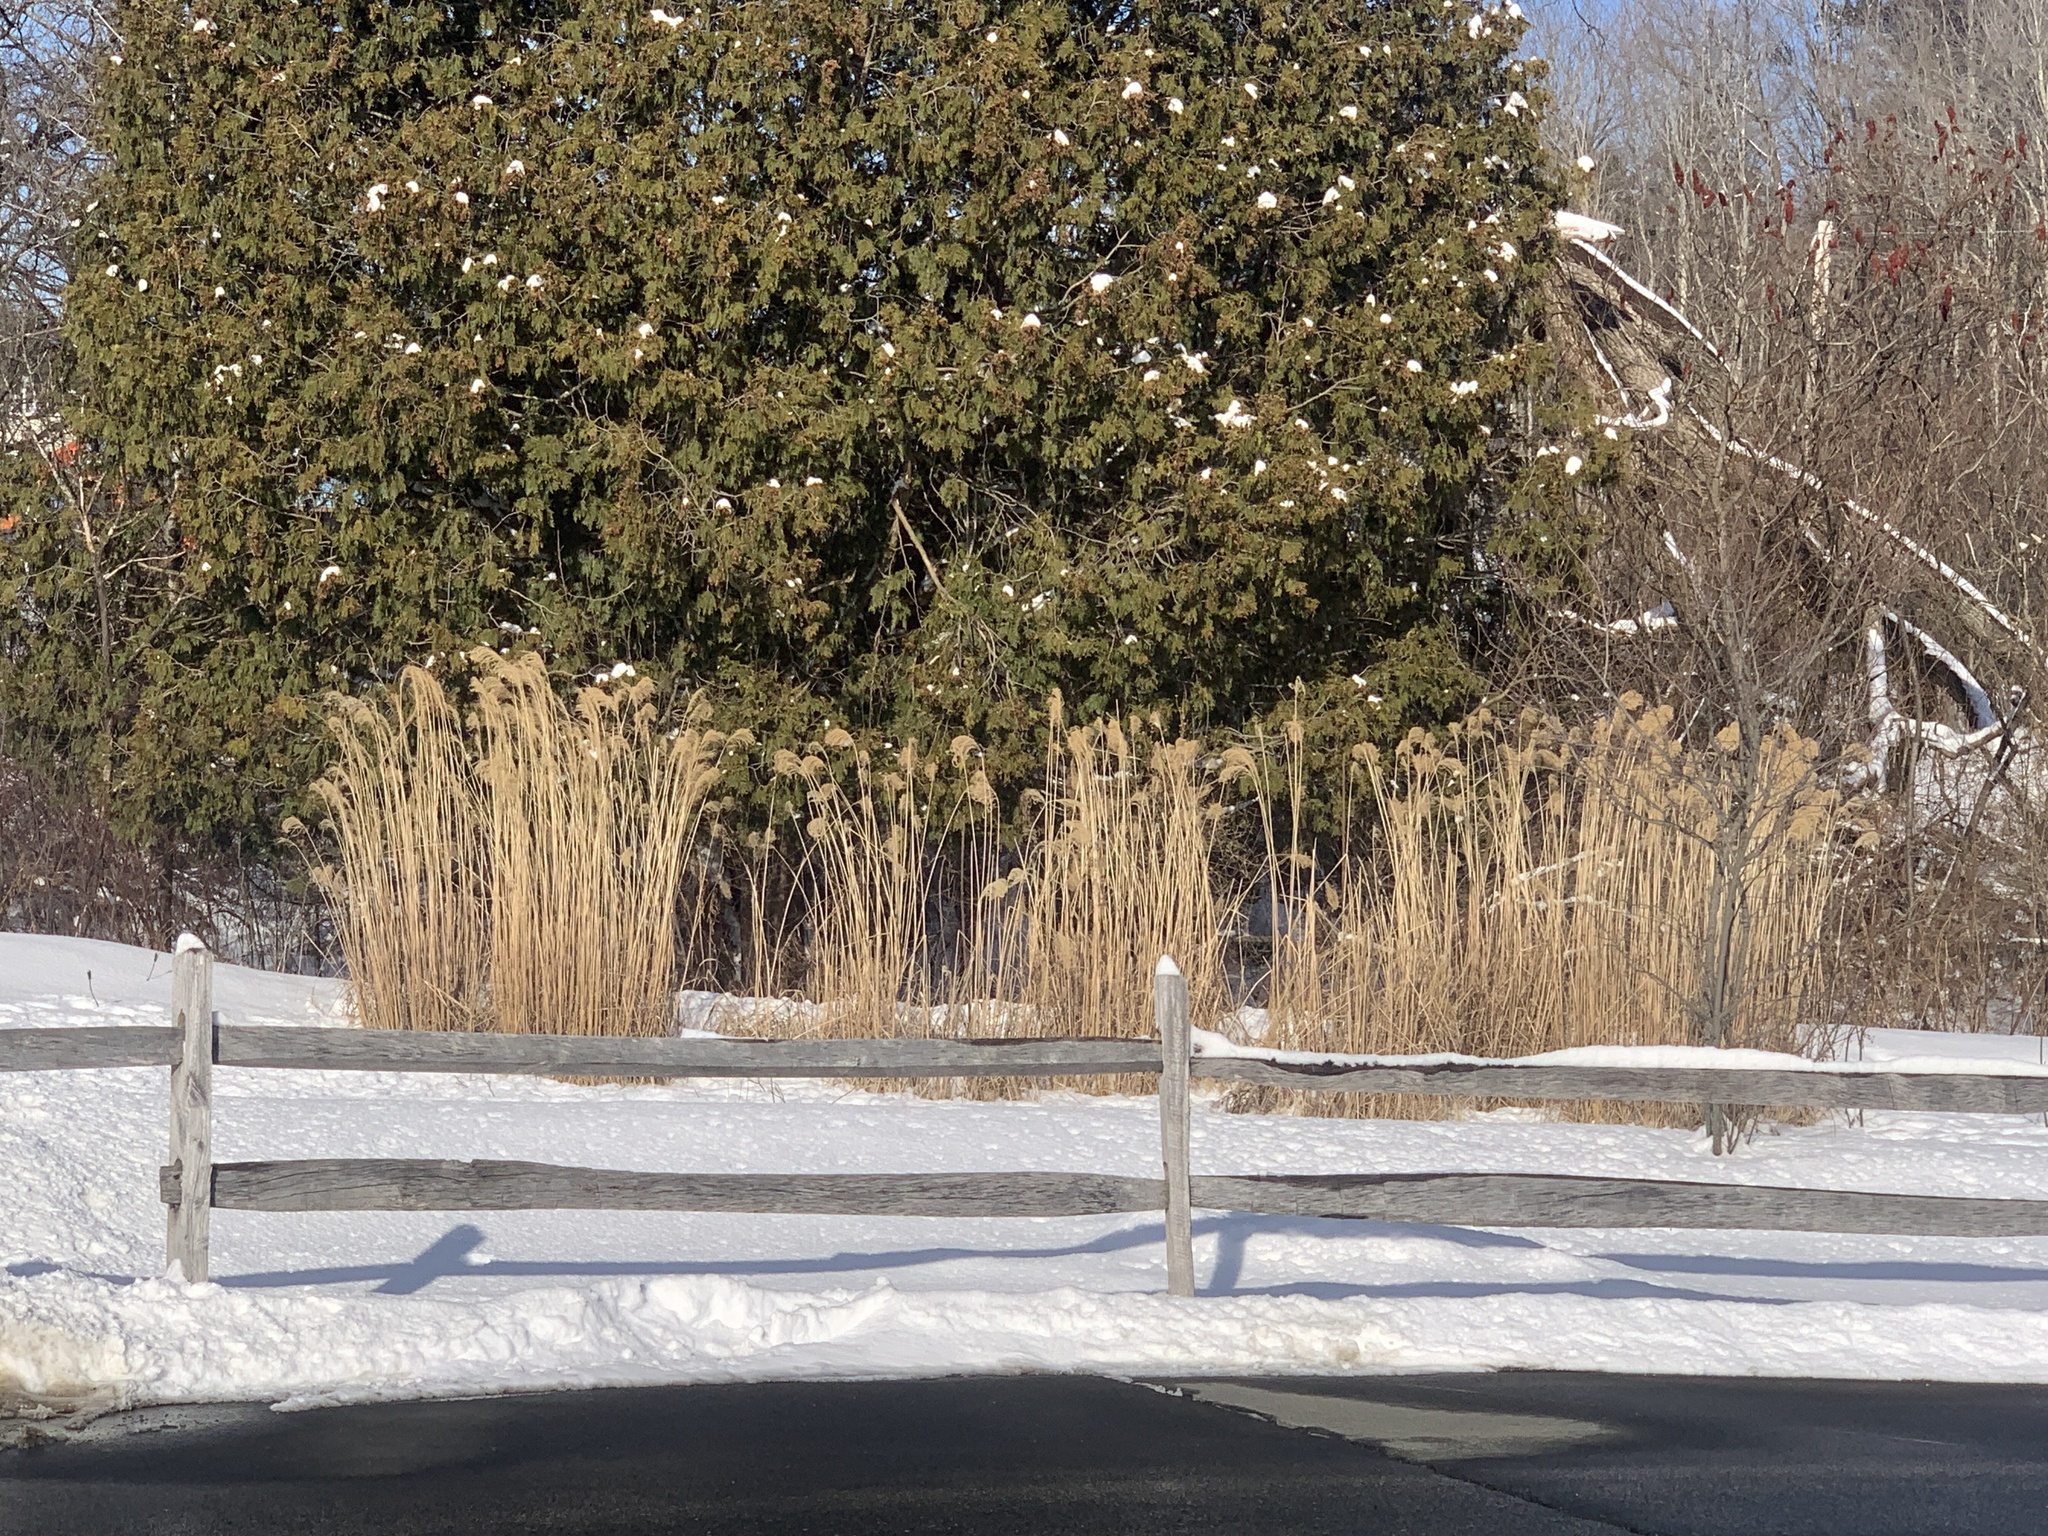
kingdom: Plantae
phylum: Tracheophyta
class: Liliopsida
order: Poales
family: Poaceae
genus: Phragmites
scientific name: Phragmites australis
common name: Common reed
